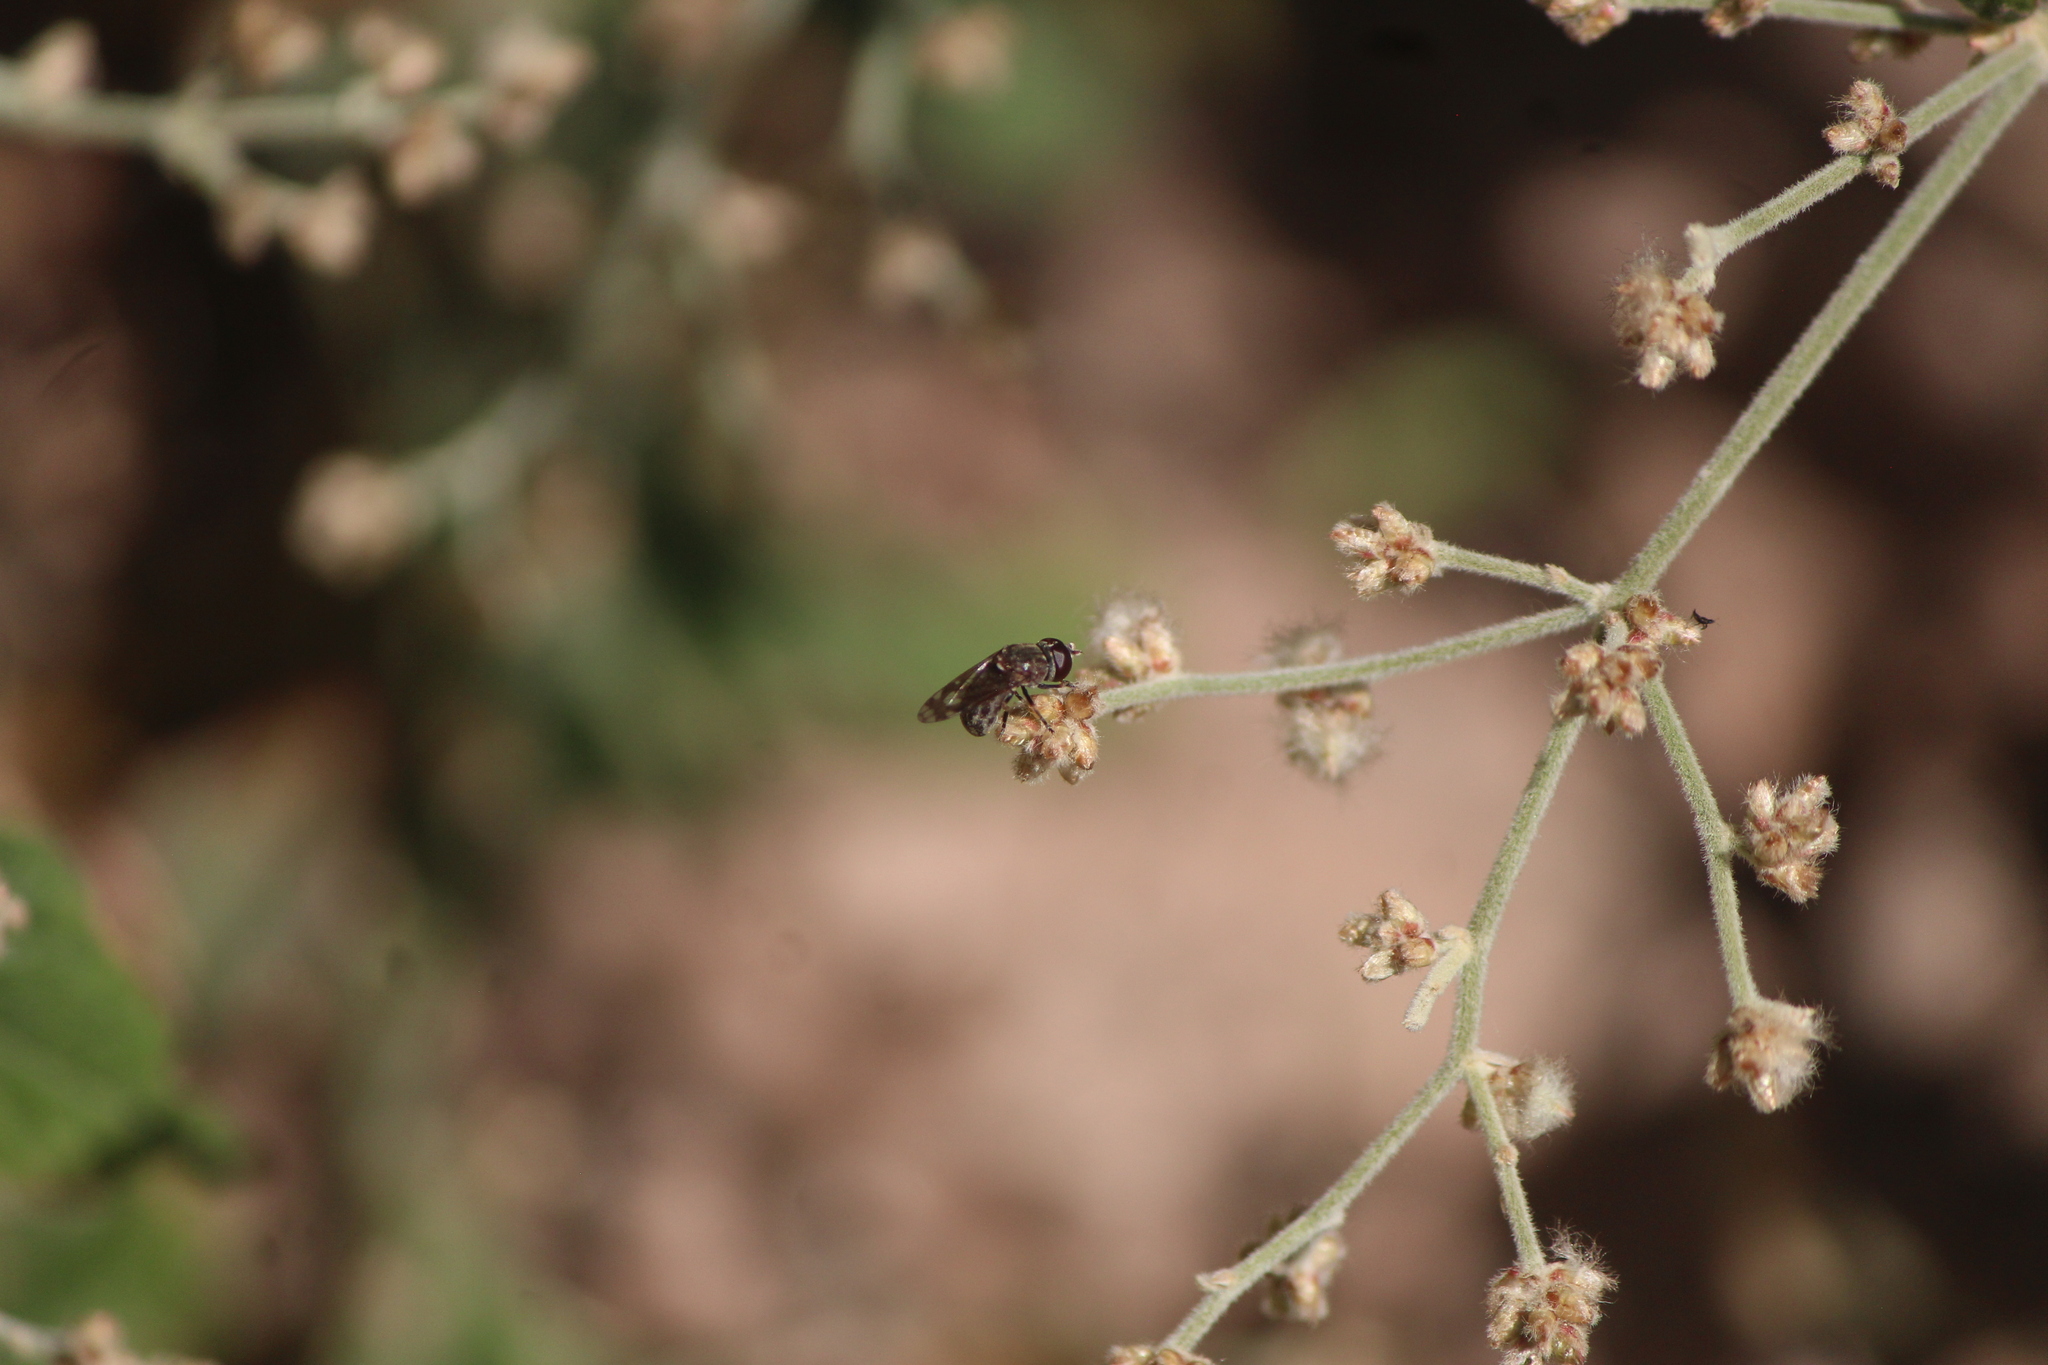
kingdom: Animalia
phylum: Arthropoda
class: Insecta
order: Diptera
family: Syrphidae
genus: Nausigaster
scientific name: Nausigaster
